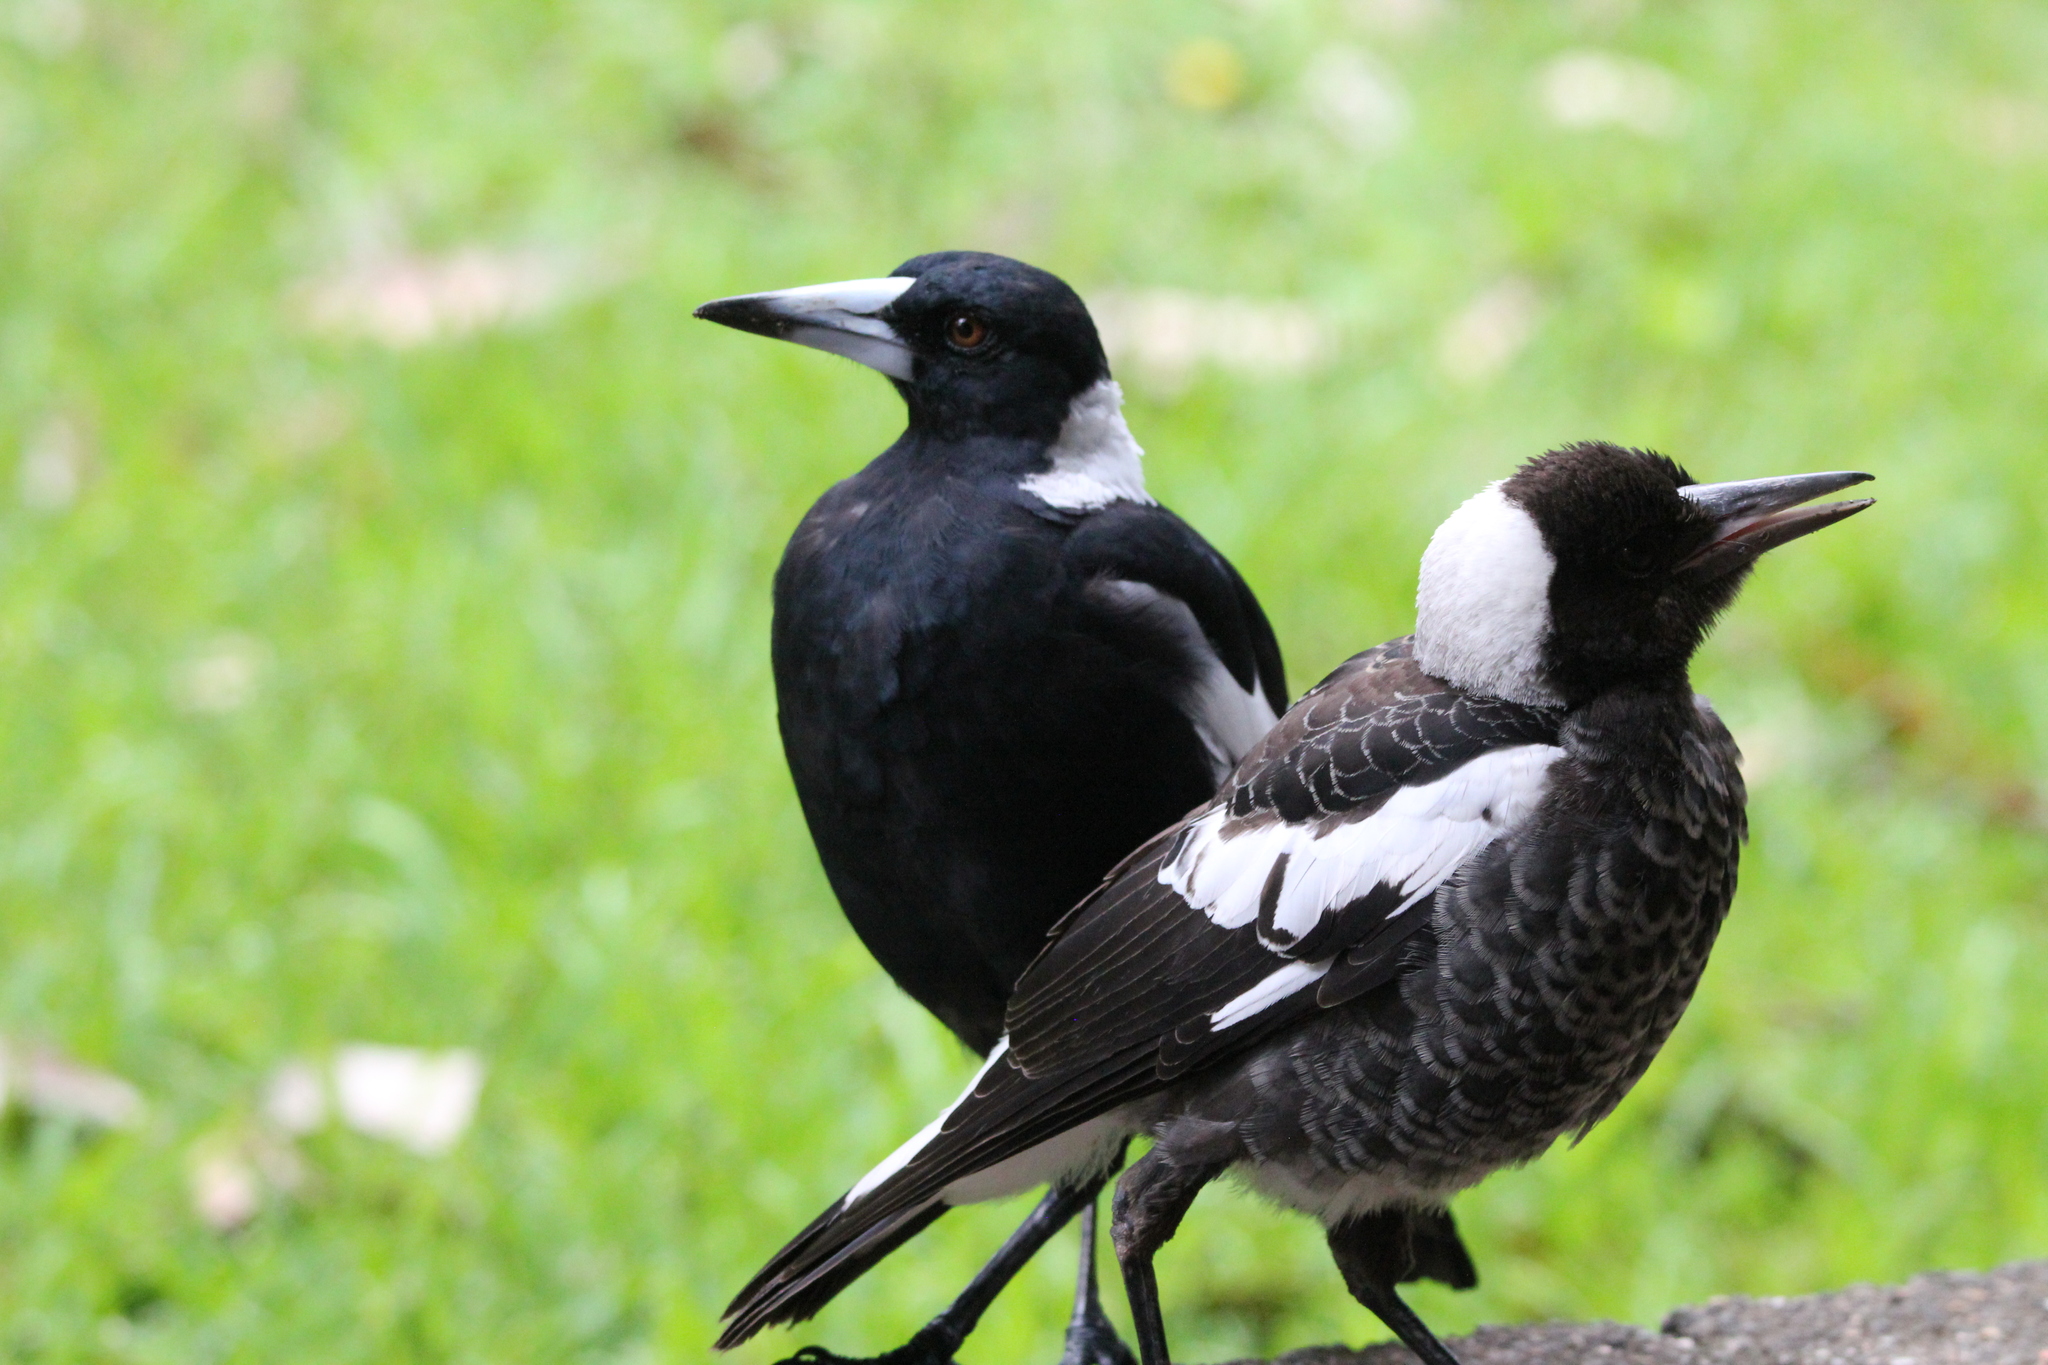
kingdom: Animalia
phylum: Chordata
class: Aves
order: Passeriformes
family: Cracticidae
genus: Gymnorhina
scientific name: Gymnorhina tibicen
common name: Australian magpie
